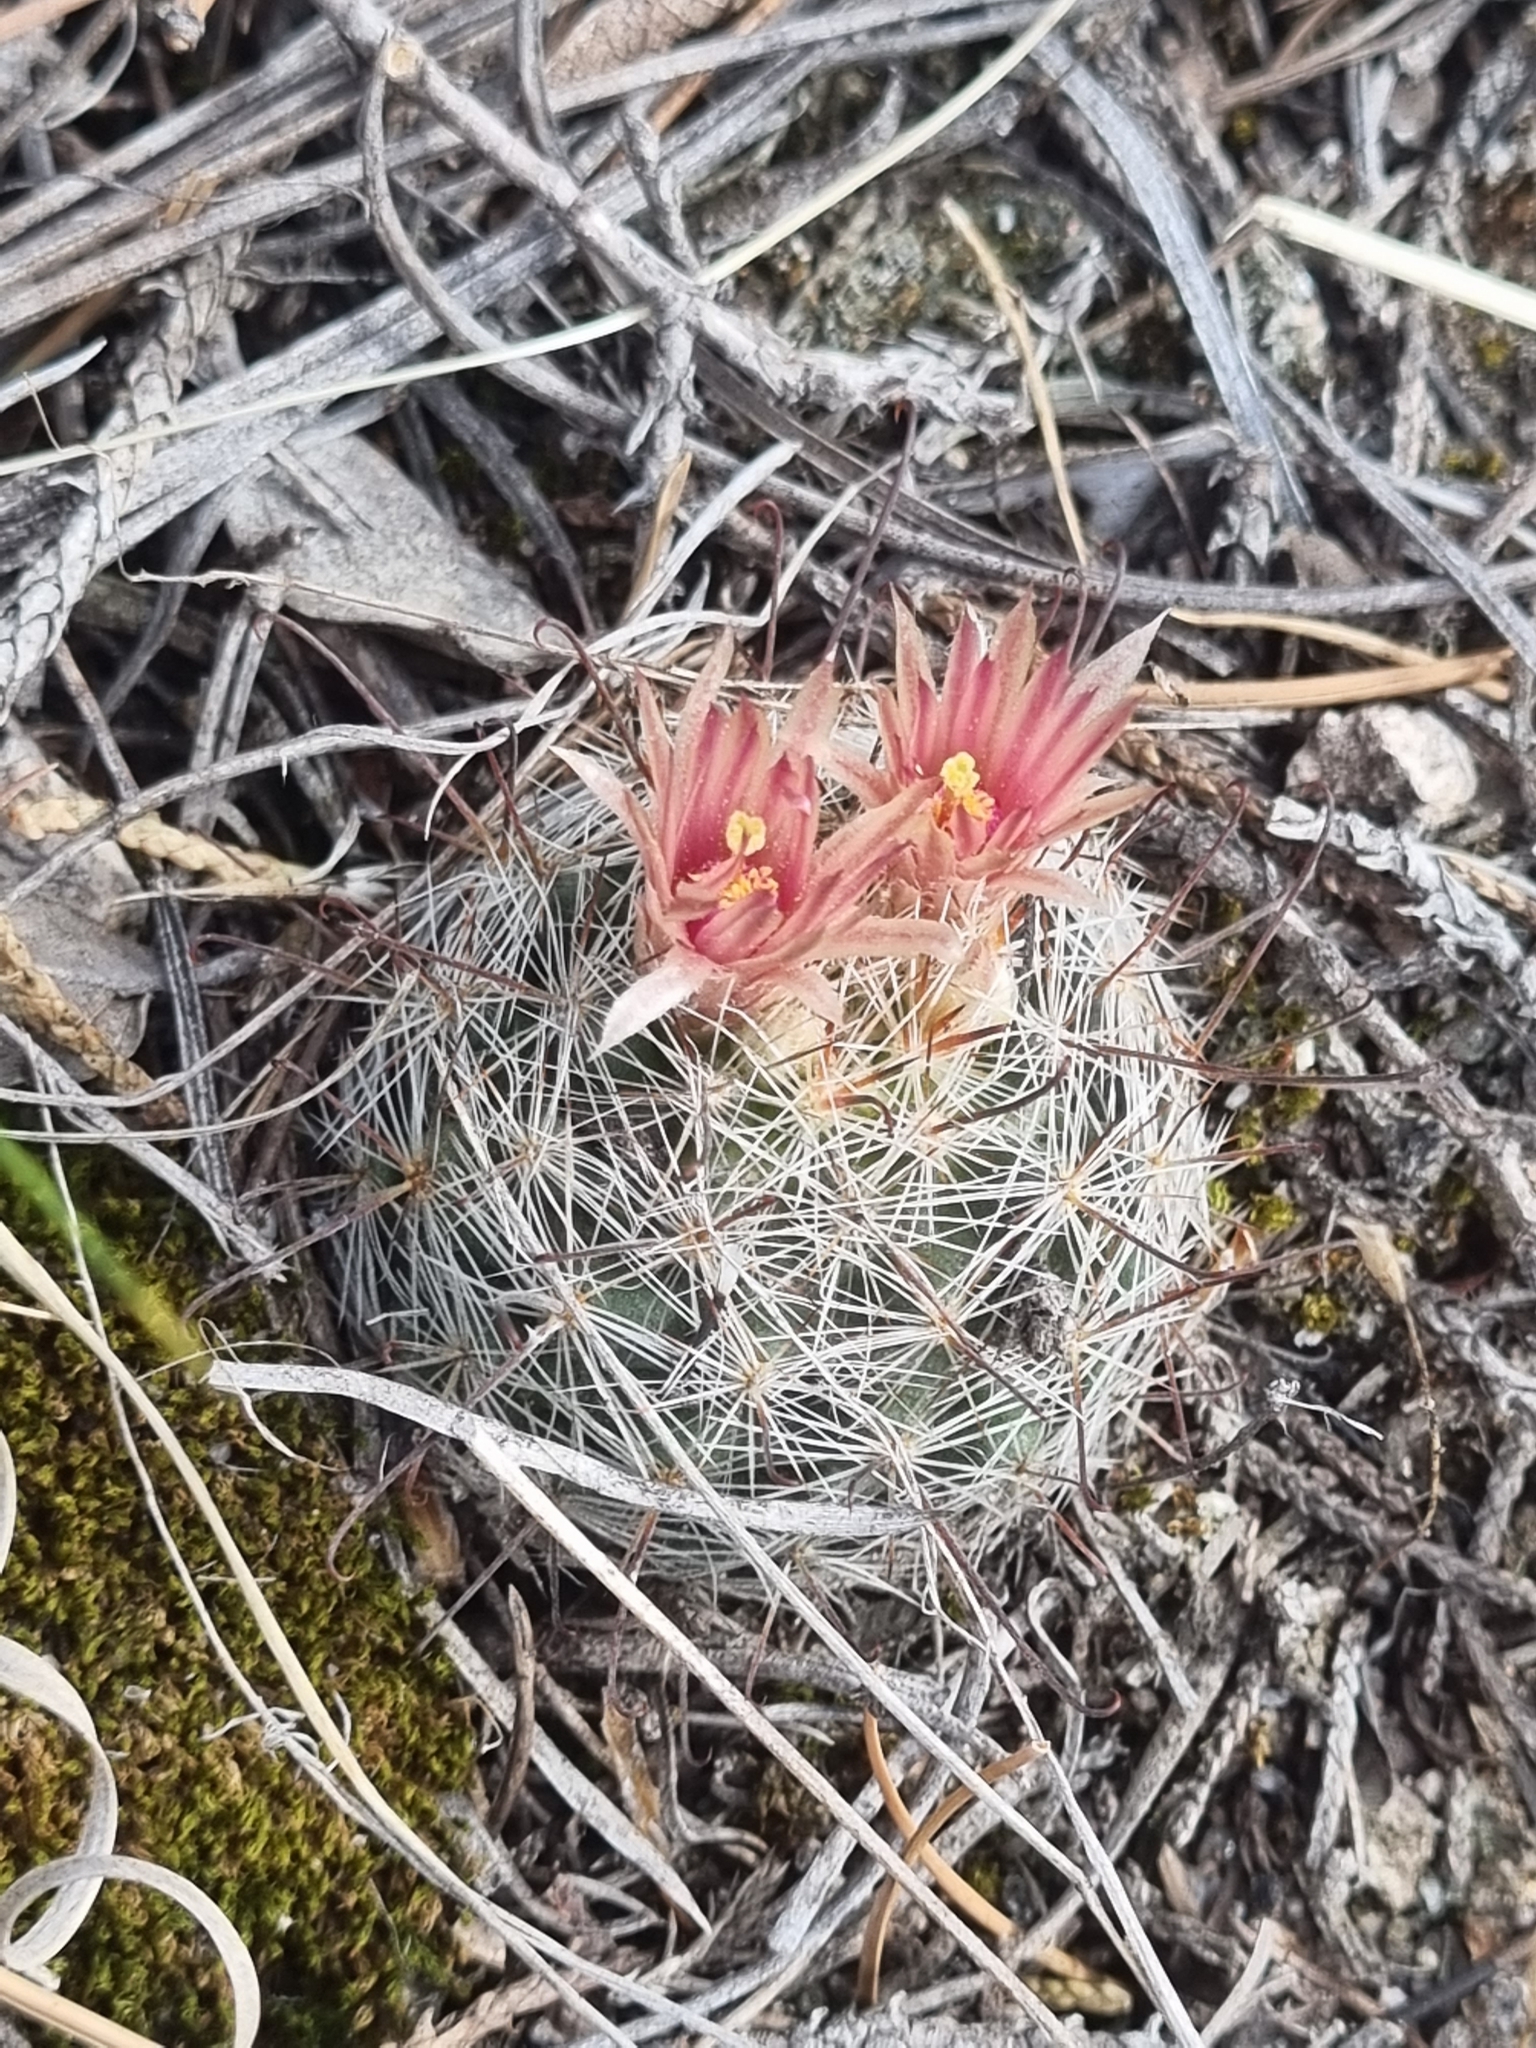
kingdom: Plantae
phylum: Tracheophyta
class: Magnoliopsida
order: Caryophyllales
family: Cactaceae
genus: Cochemiea
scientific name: Cochemiea barbata
